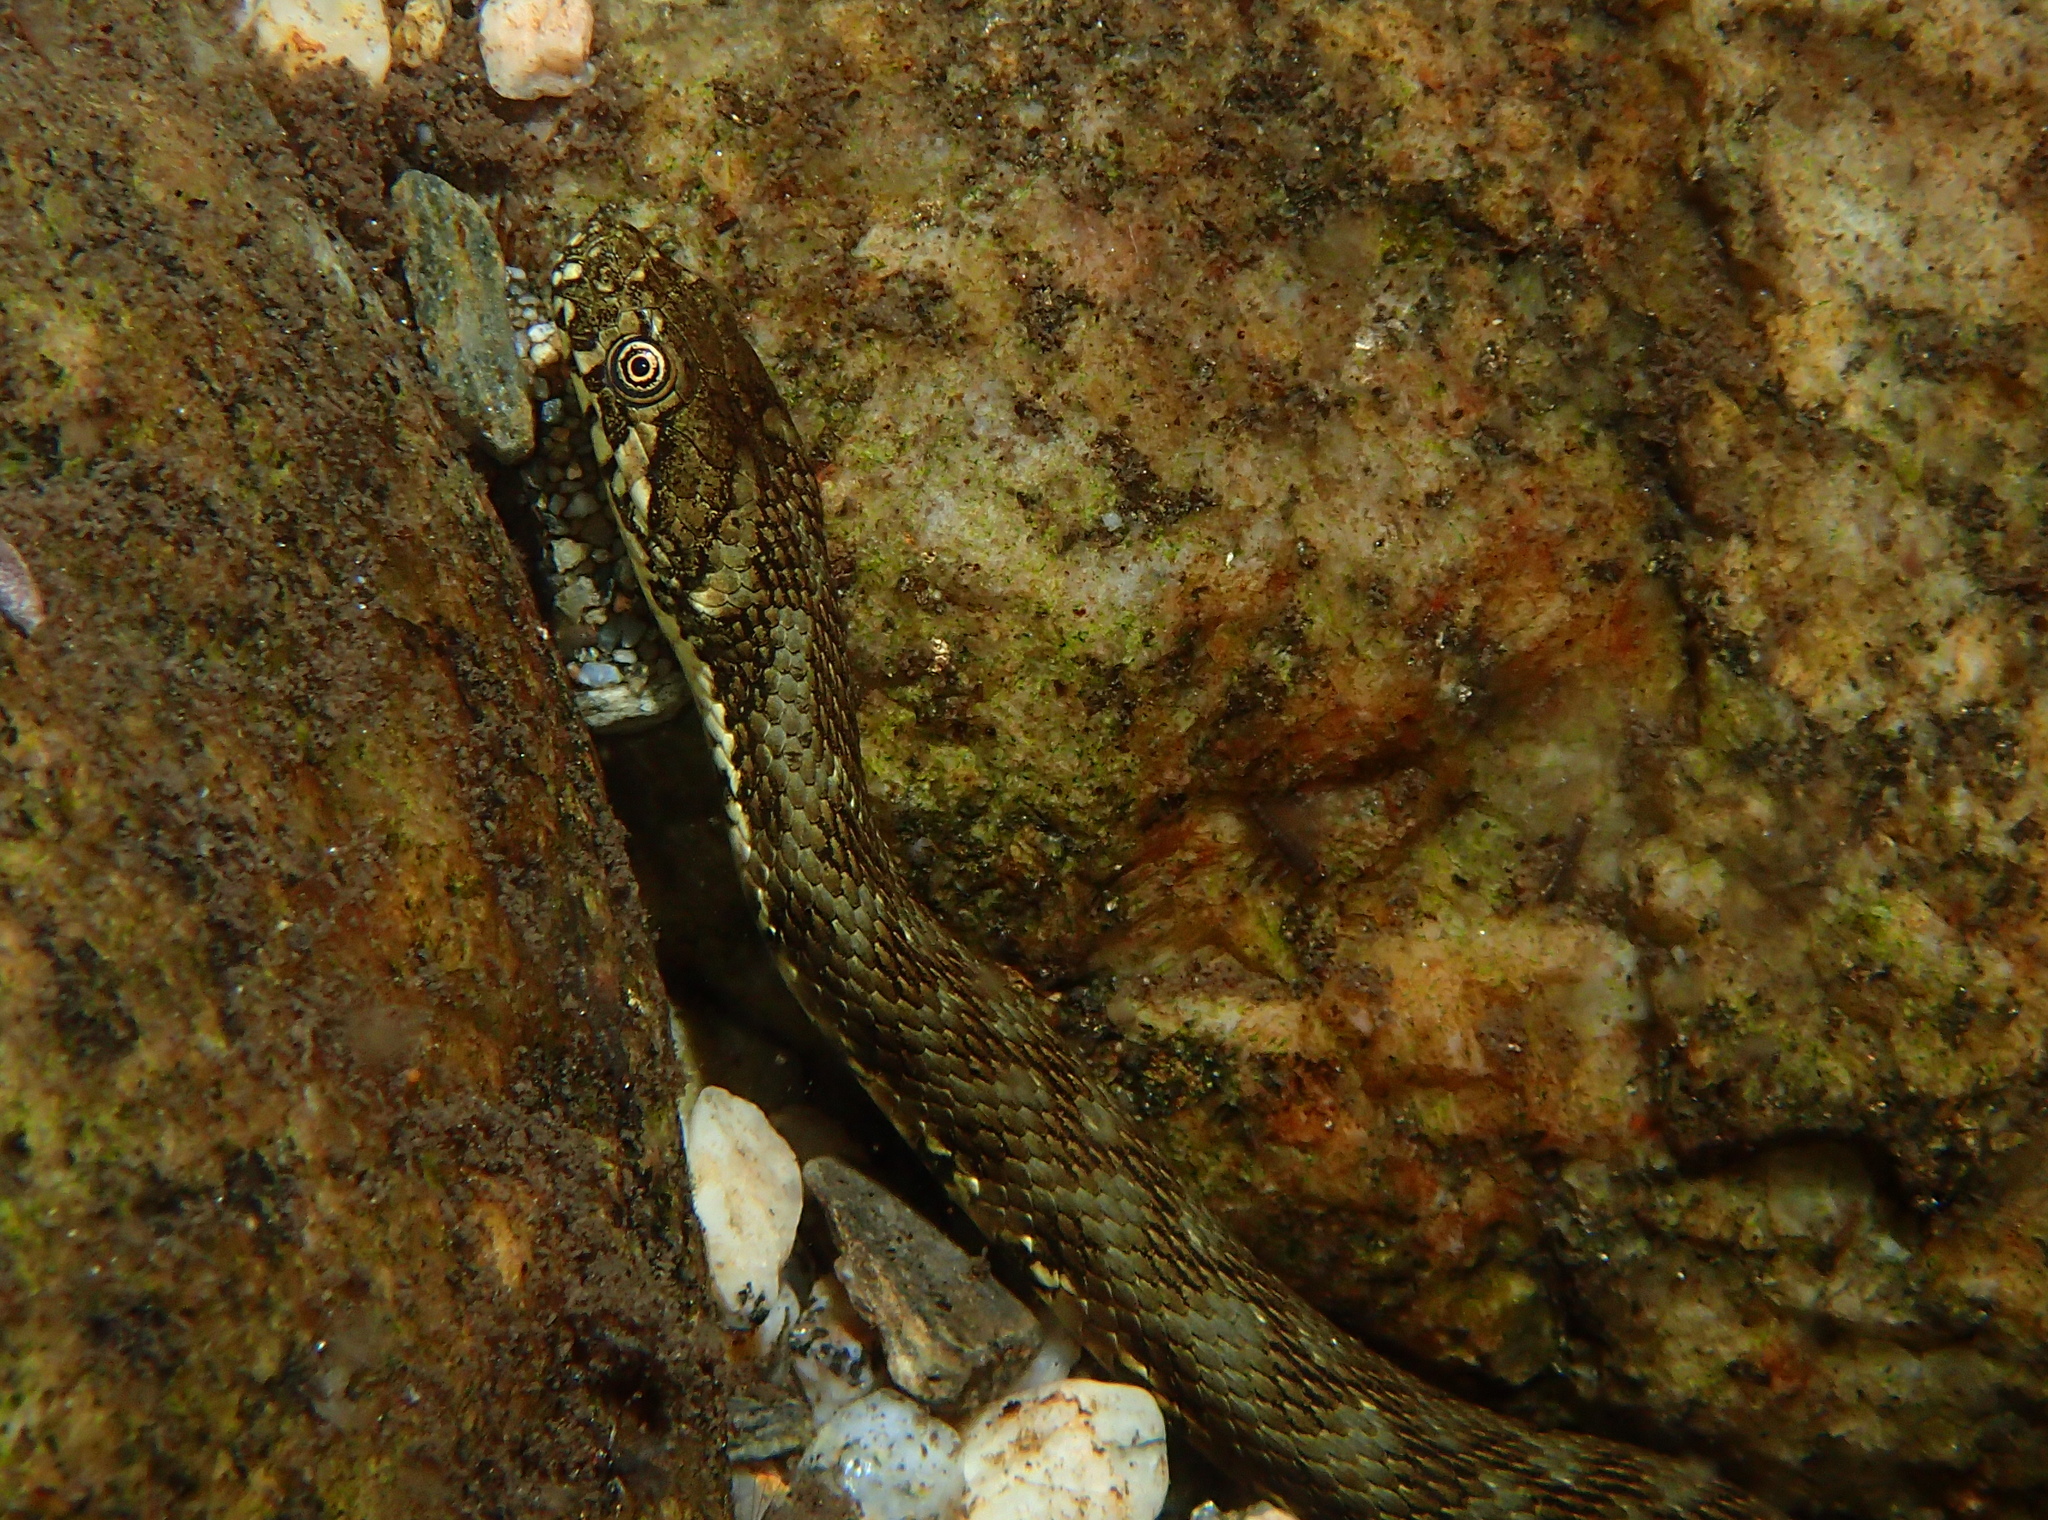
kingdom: Animalia
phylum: Chordata
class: Squamata
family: Colubridae
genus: Natrix
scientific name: Natrix maura
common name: Viperine water snake
